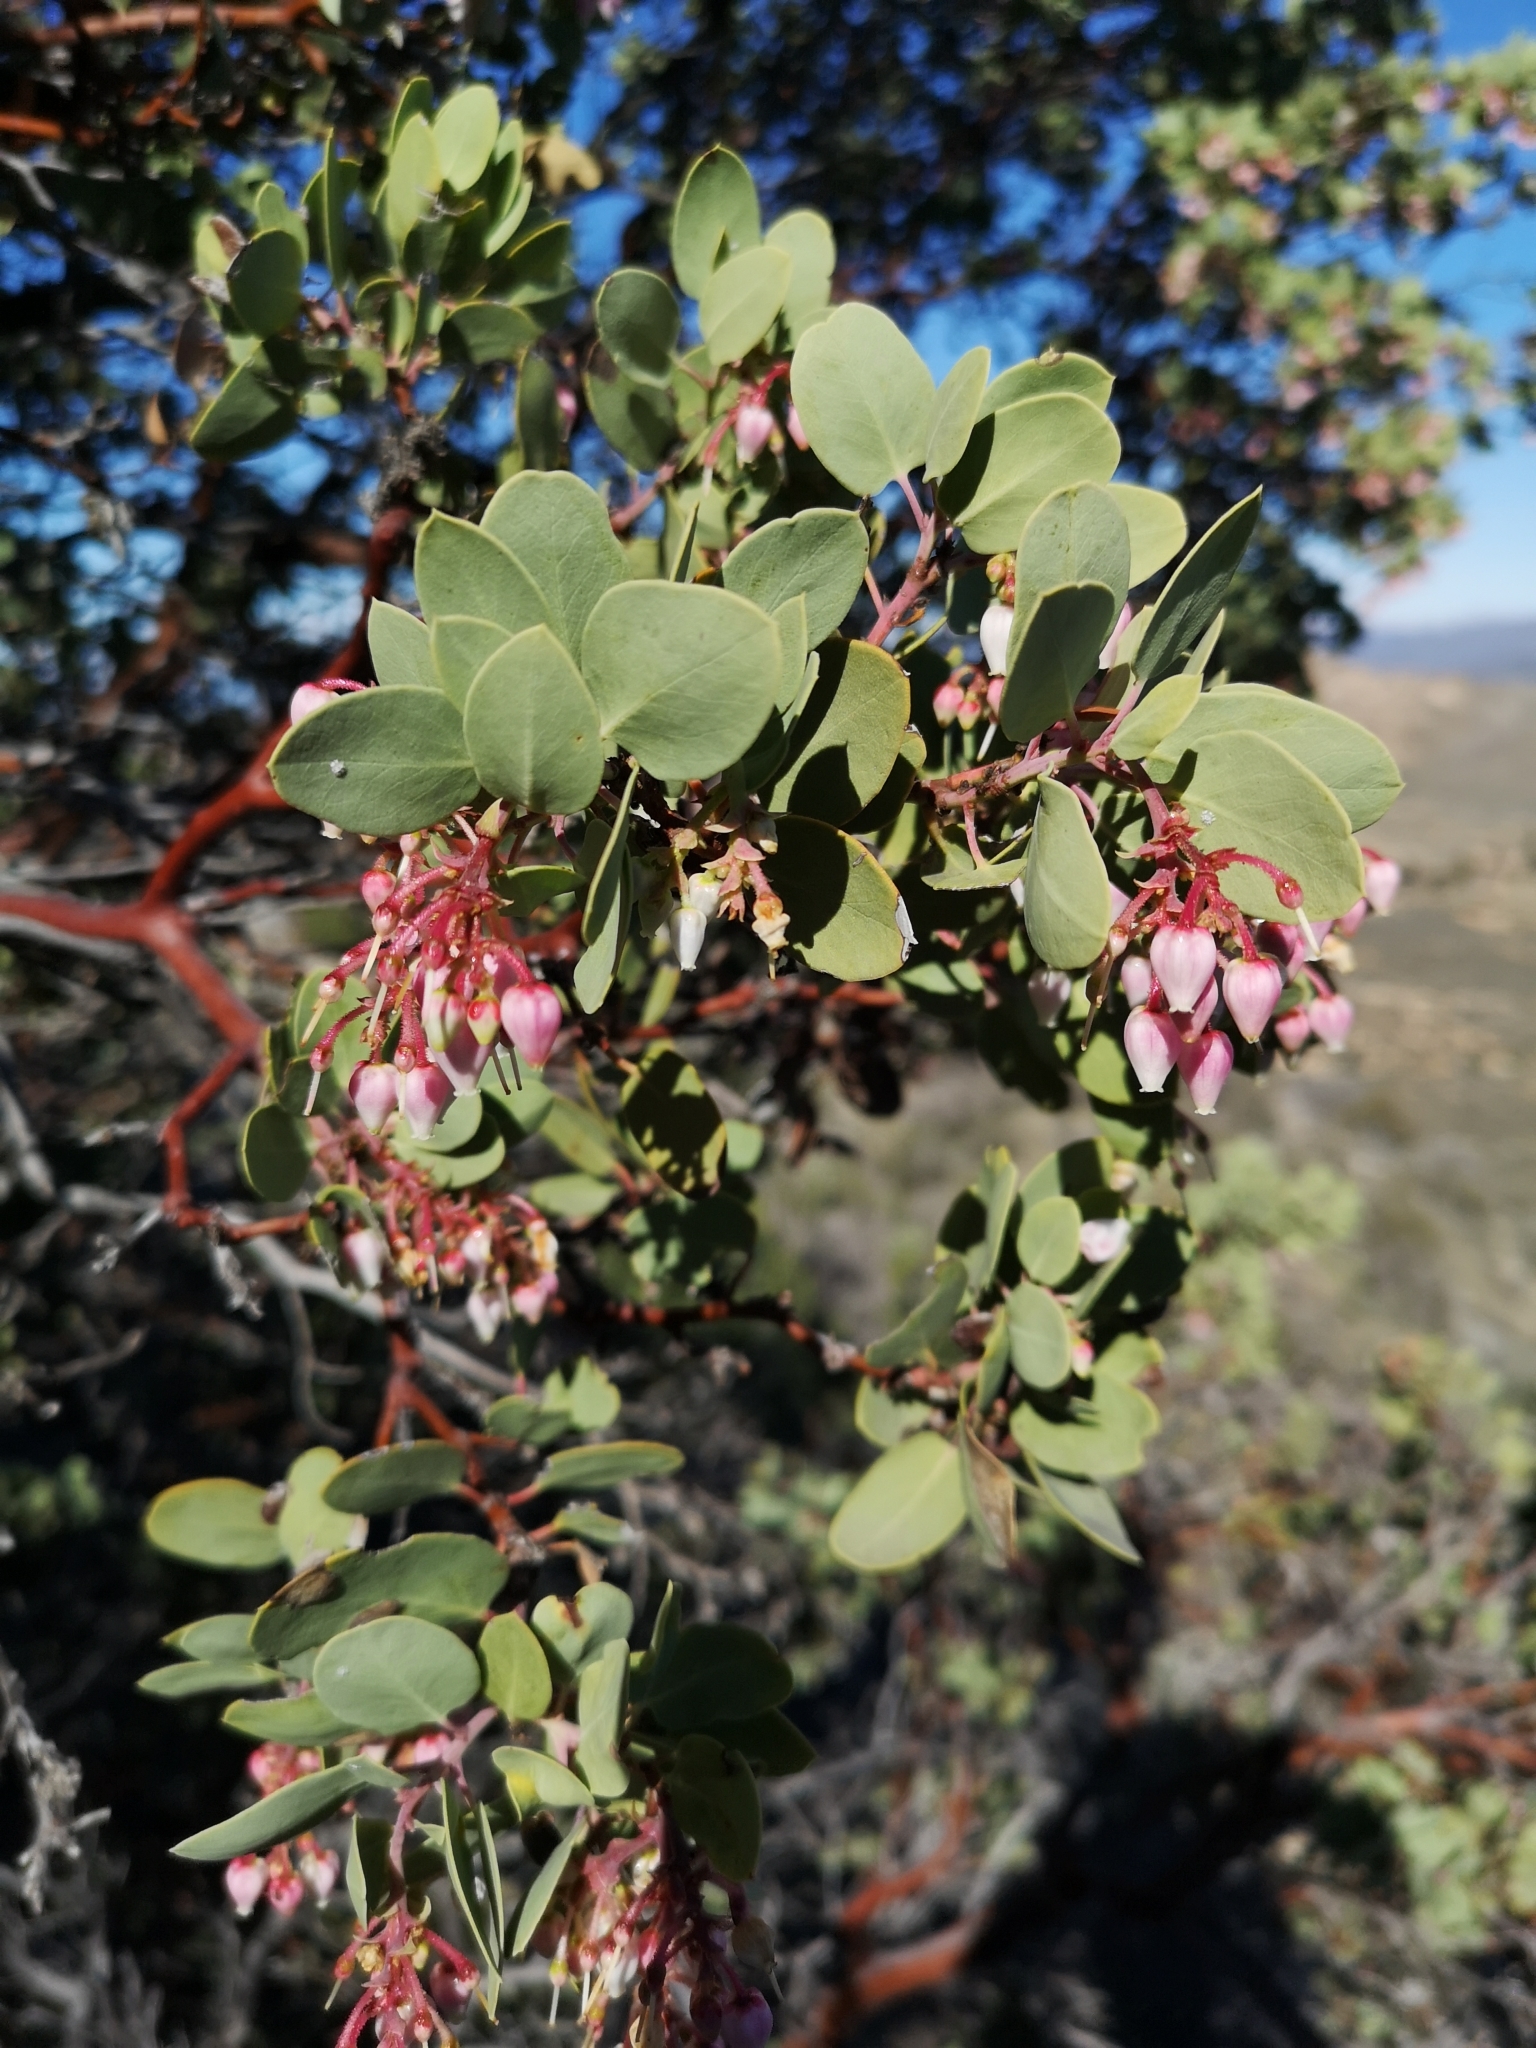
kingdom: Plantae
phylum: Tracheophyta
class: Magnoliopsida
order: Ericales
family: Ericaceae
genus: Arctostaphylos
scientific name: Arctostaphylos glauca
